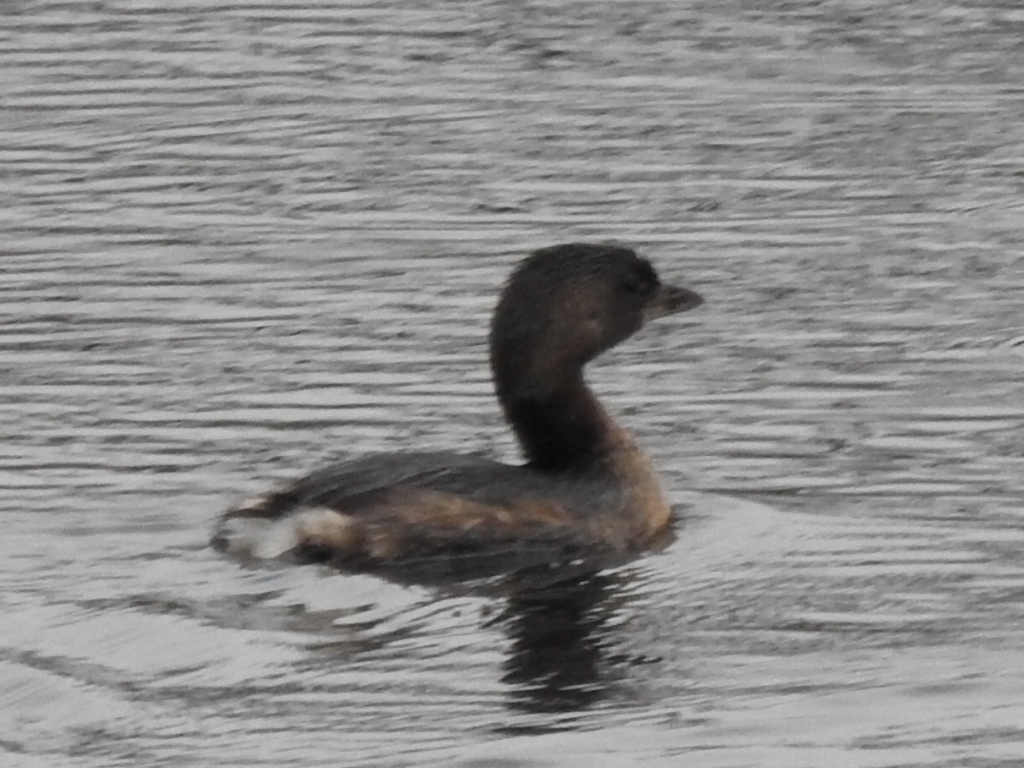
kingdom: Animalia
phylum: Chordata
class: Aves
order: Podicipediformes
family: Podicipedidae
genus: Podilymbus
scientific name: Podilymbus podiceps
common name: Pied-billed grebe
